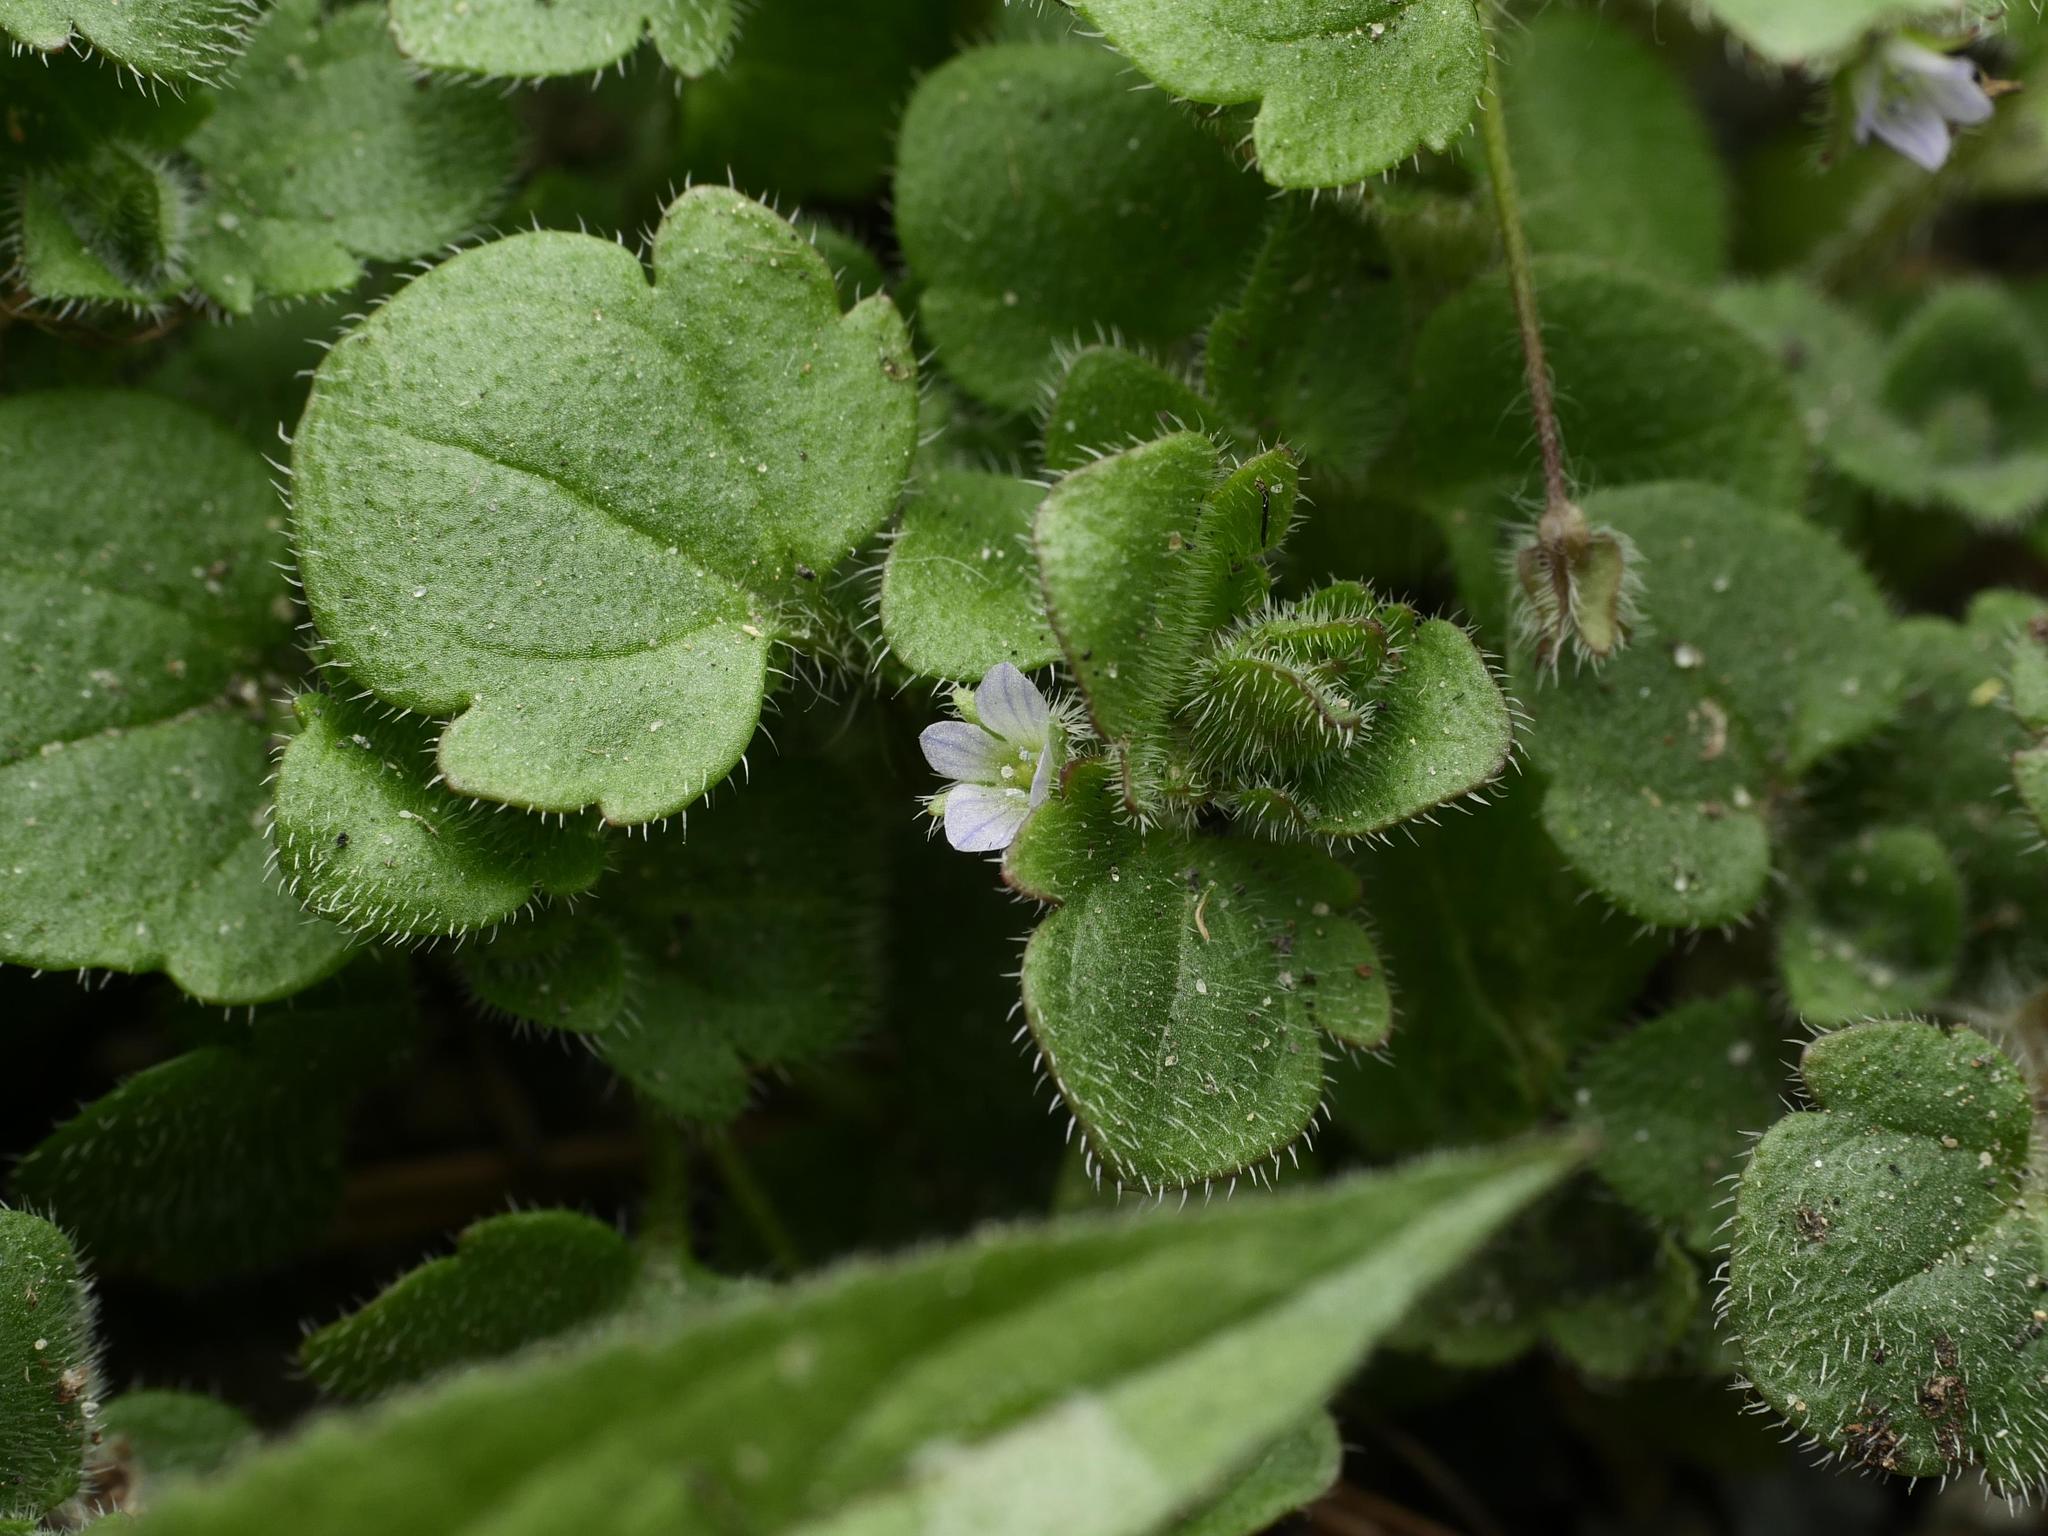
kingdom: Plantae
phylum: Tracheophyta
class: Magnoliopsida
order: Lamiales
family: Plantaginaceae
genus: Veronica
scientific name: Veronica sublobata
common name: False ivy-leaved speedwell
